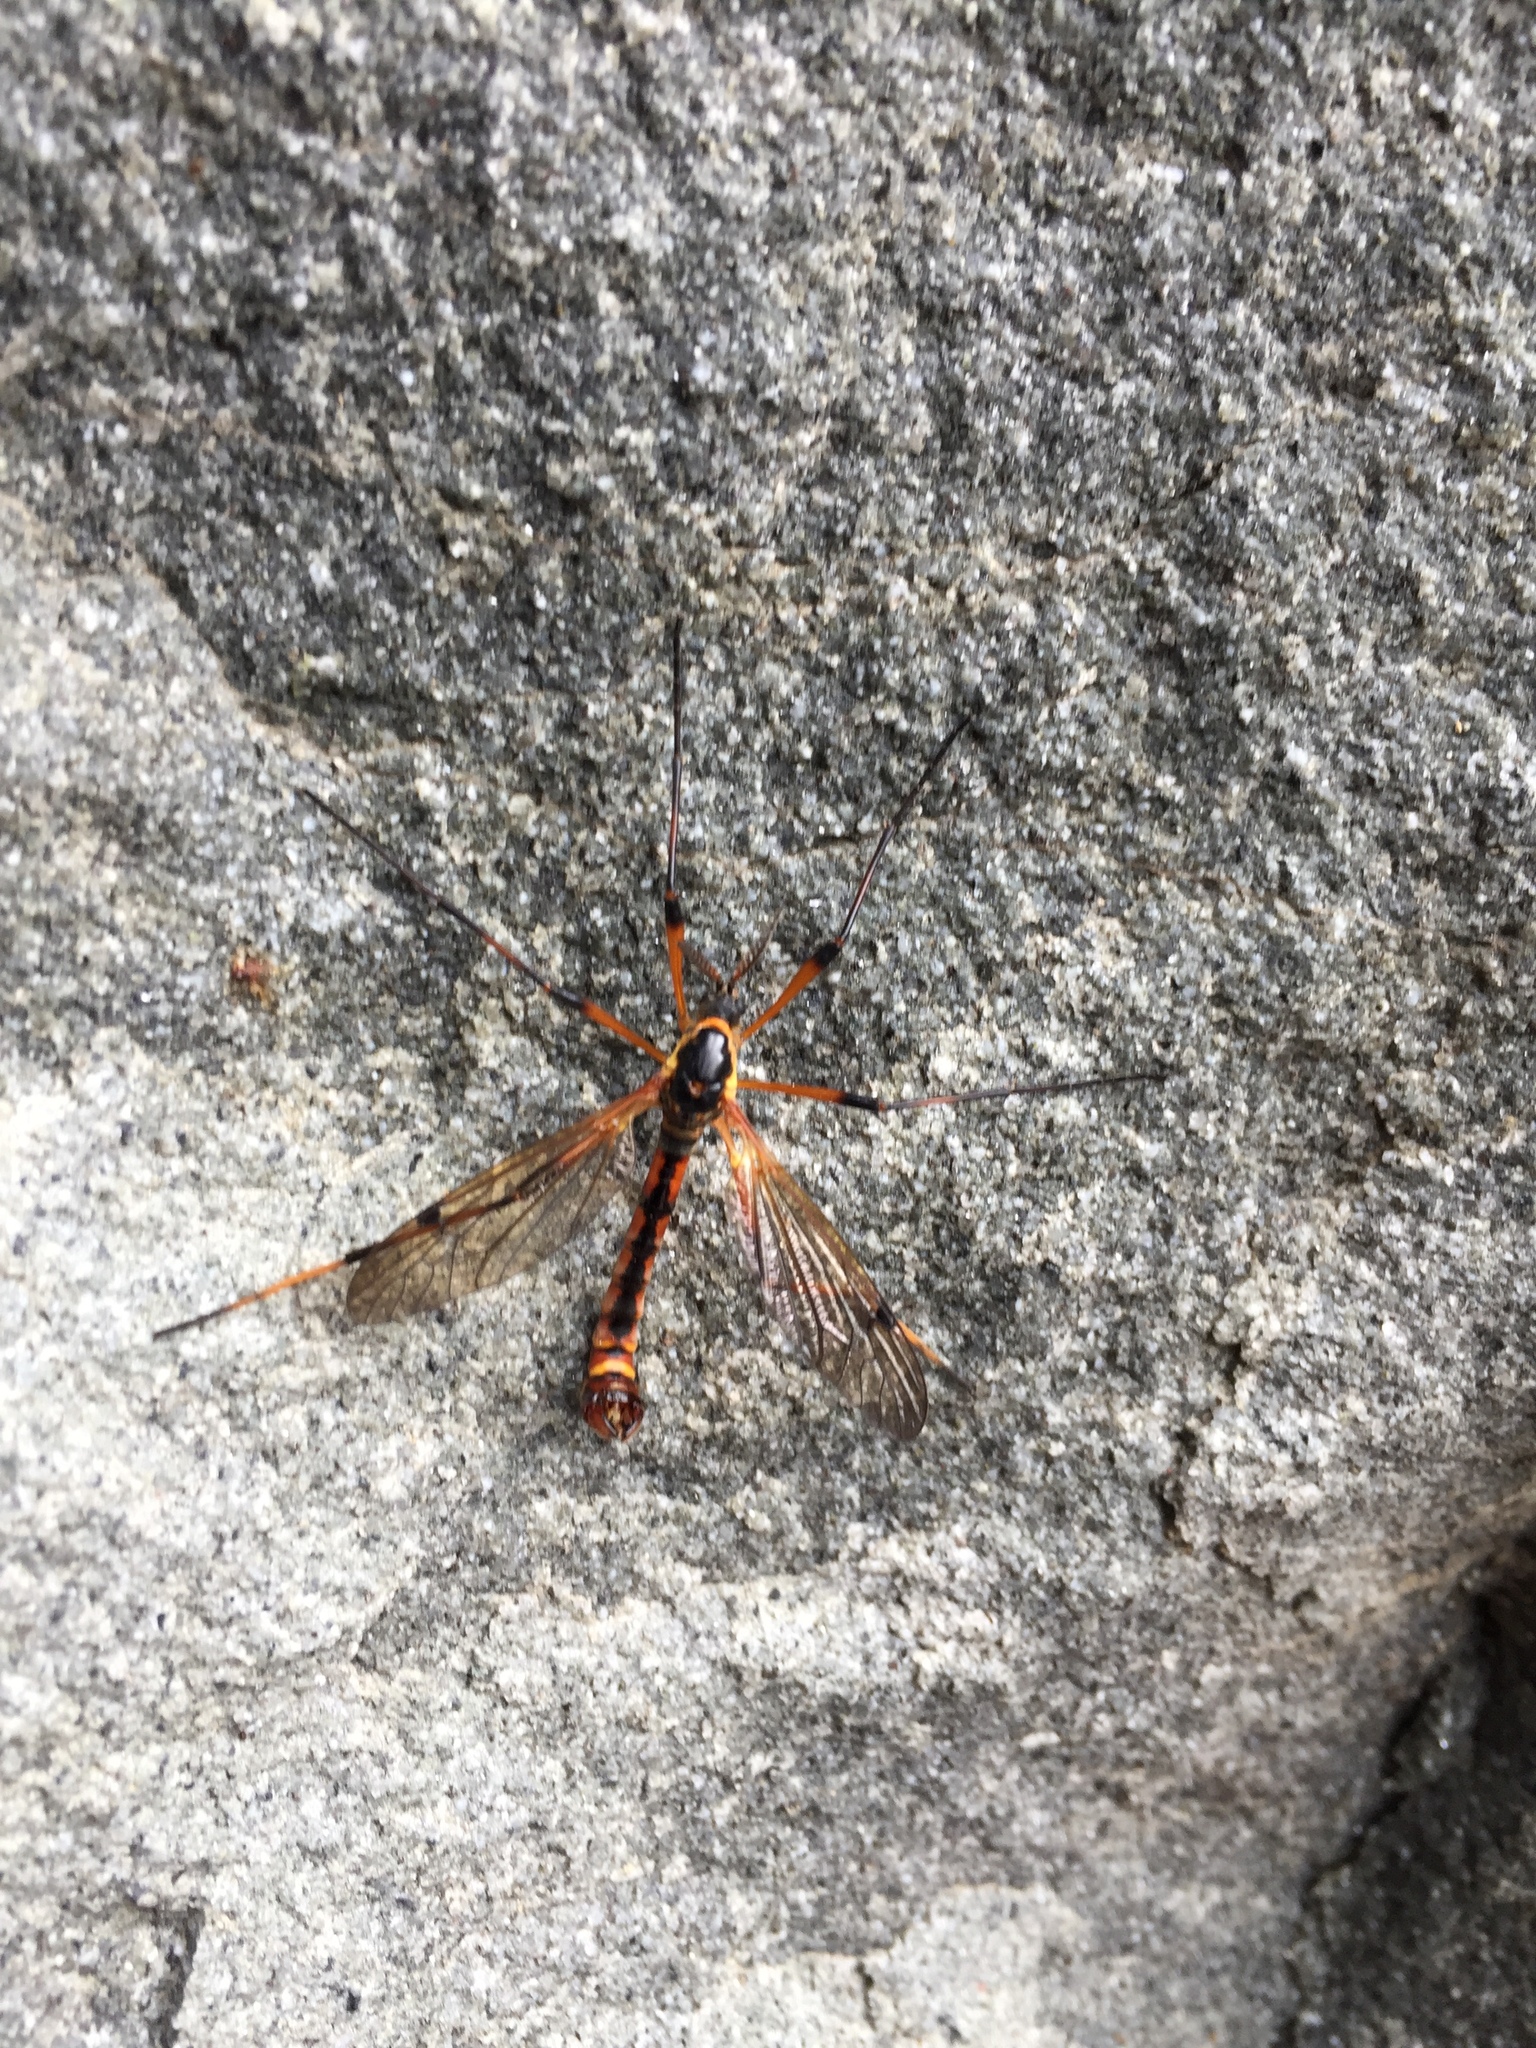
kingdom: Animalia
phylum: Arthropoda
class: Insecta
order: Diptera
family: Tipulidae
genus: Phoroctenia
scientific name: Phoroctenia vittata
